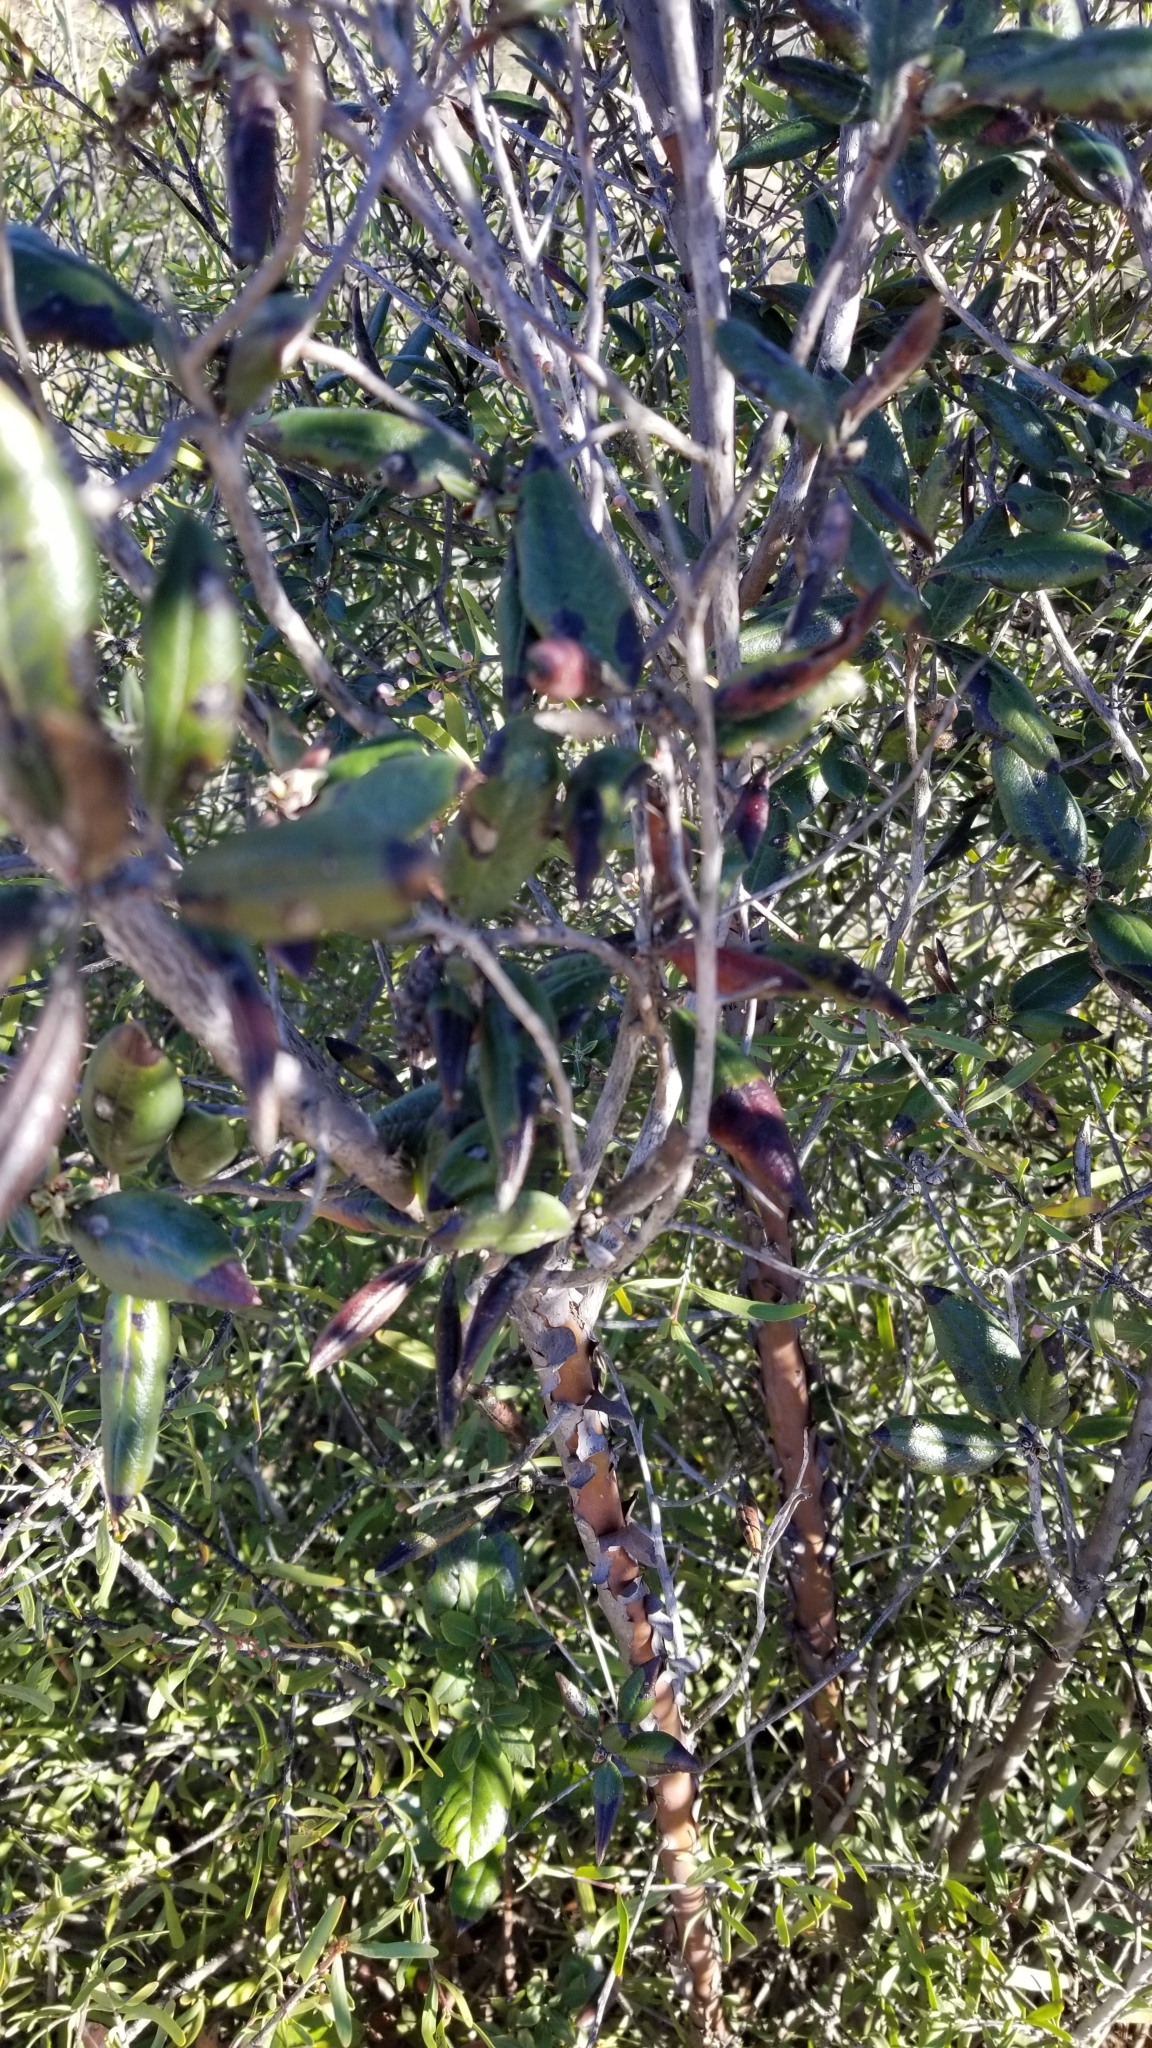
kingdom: Plantae
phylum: Tracheophyta
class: Magnoliopsida
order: Ericales
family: Ericaceae
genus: Arctostaphylos
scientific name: Arctostaphylos bicolor
